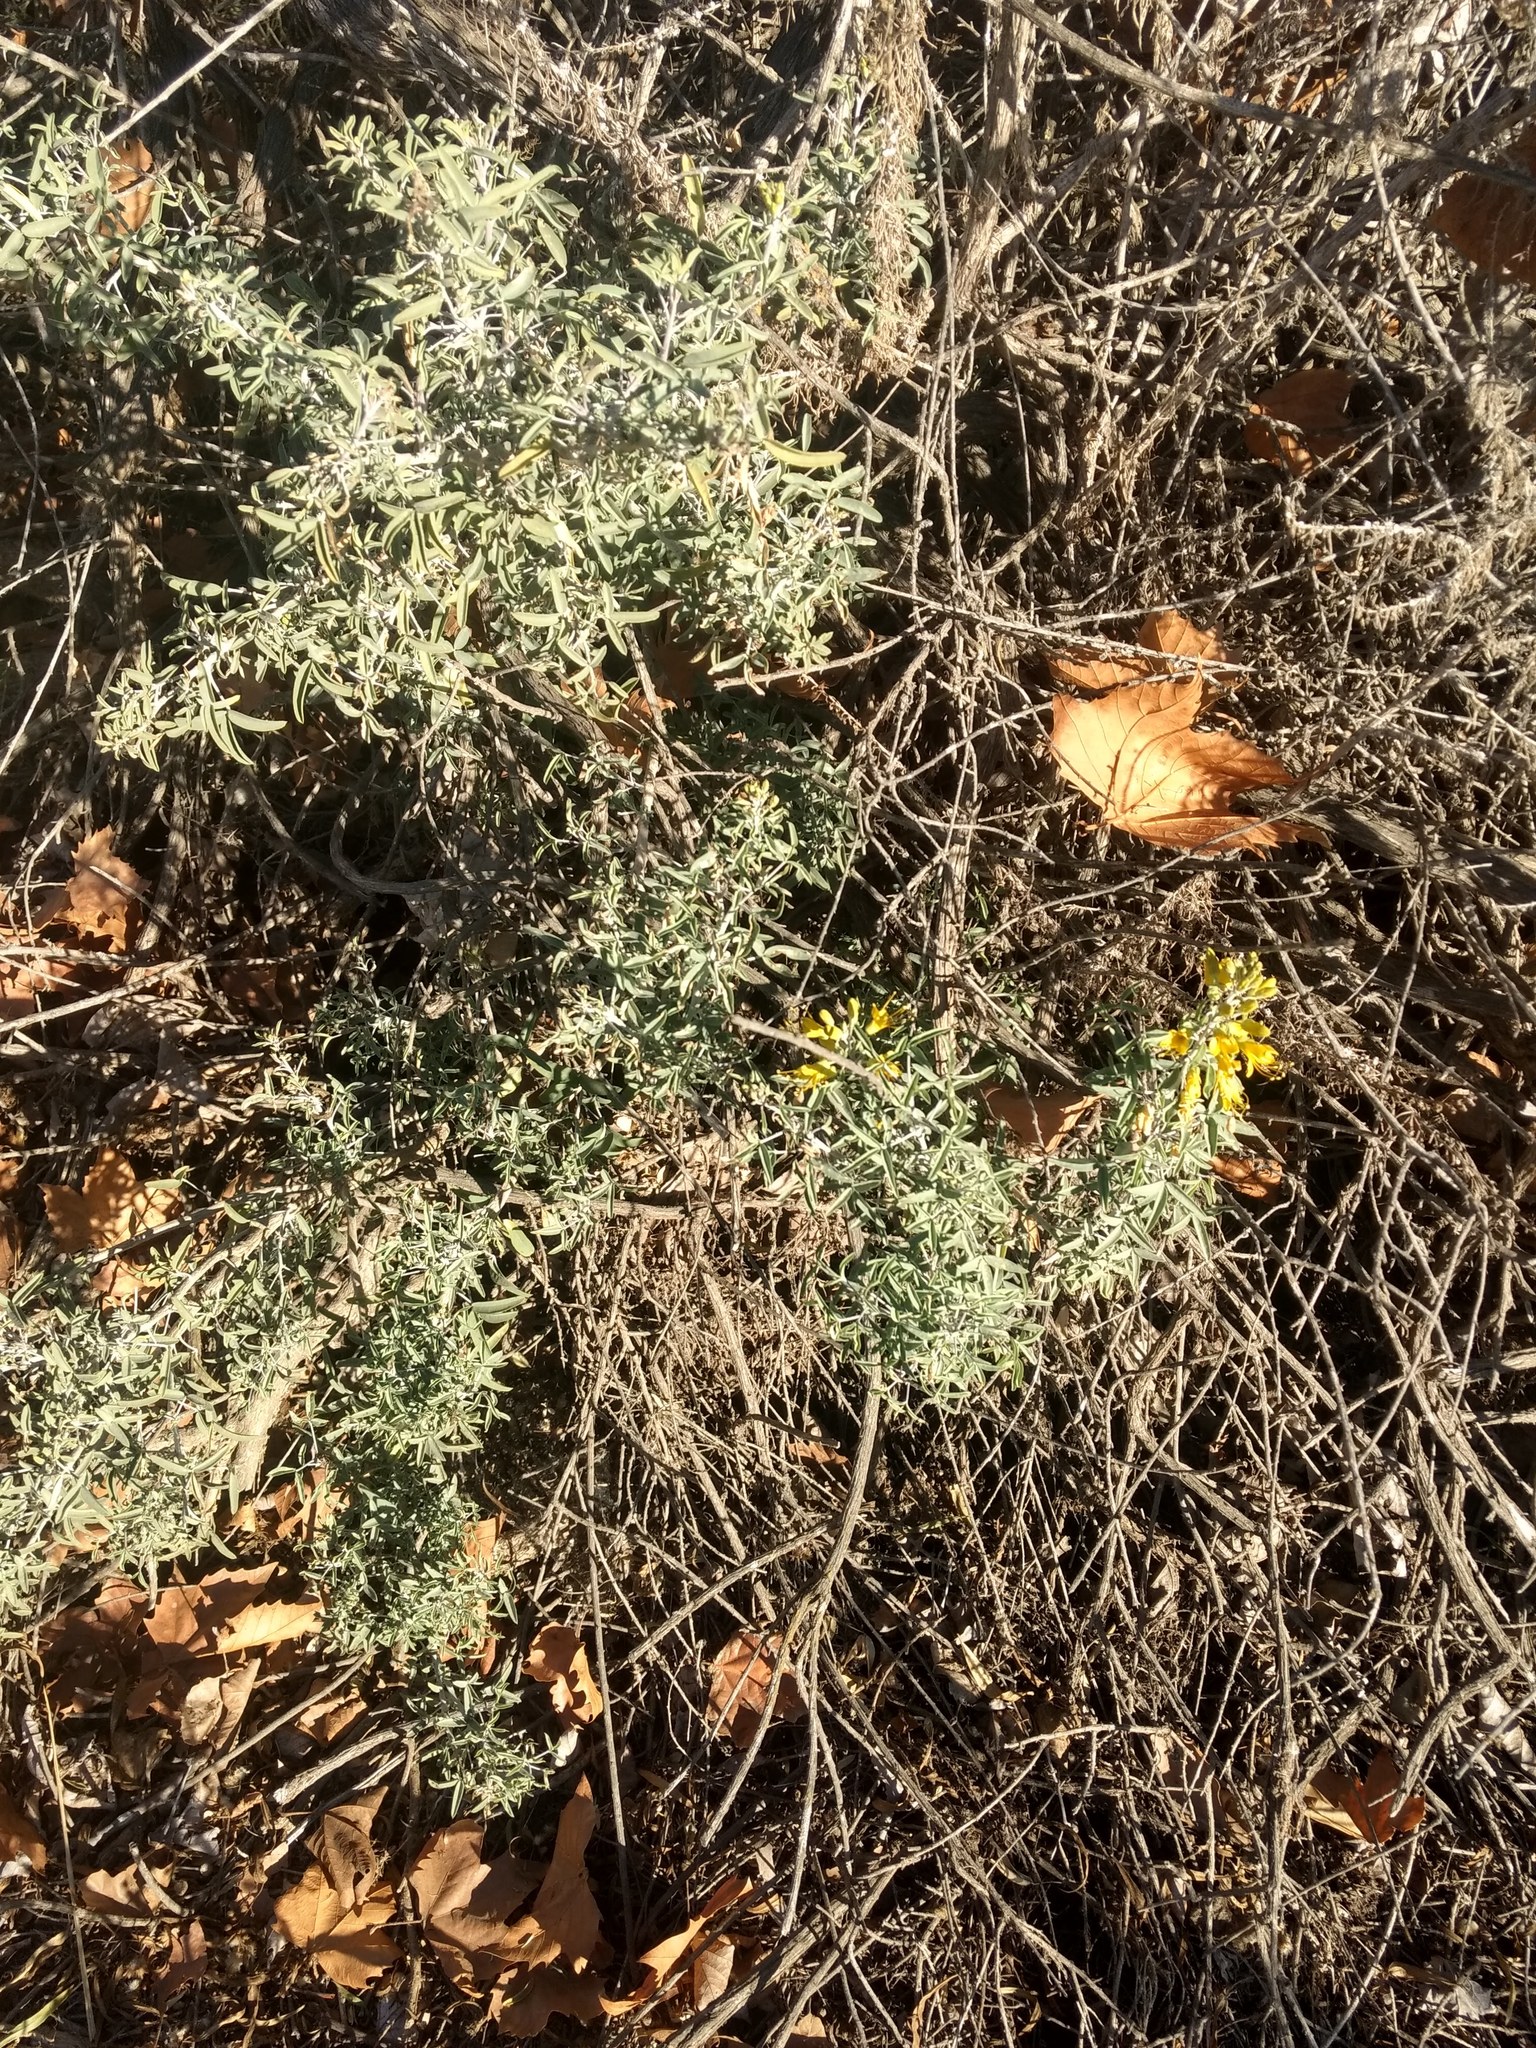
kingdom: Plantae
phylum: Tracheophyta
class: Magnoliopsida
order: Brassicales
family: Cleomaceae
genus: Cleomella
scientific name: Cleomella arborea
